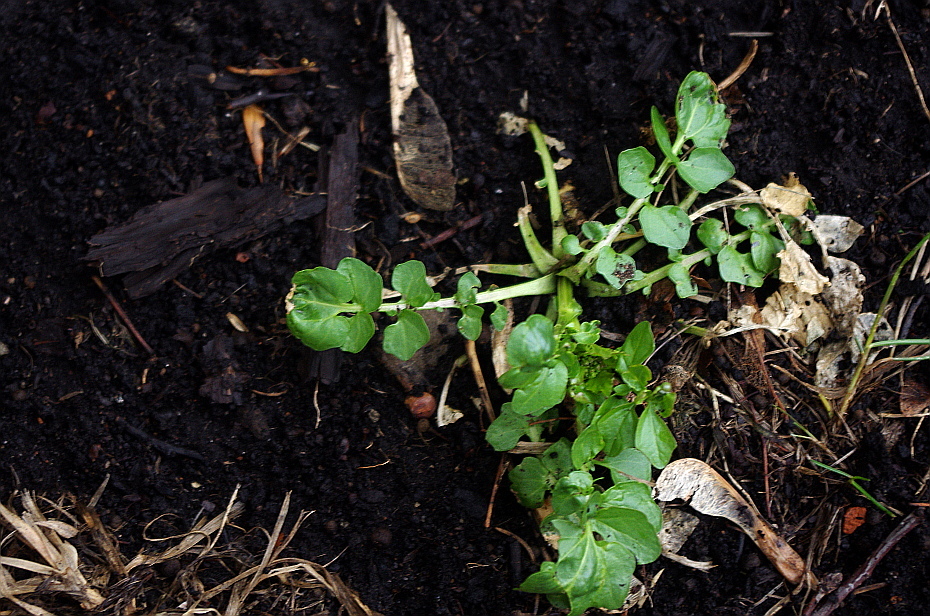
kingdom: Plantae
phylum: Tracheophyta
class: Magnoliopsida
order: Brassicales
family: Brassicaceae
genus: Barbarea
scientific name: Barbarea vulgaris
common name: Cressy-greens
